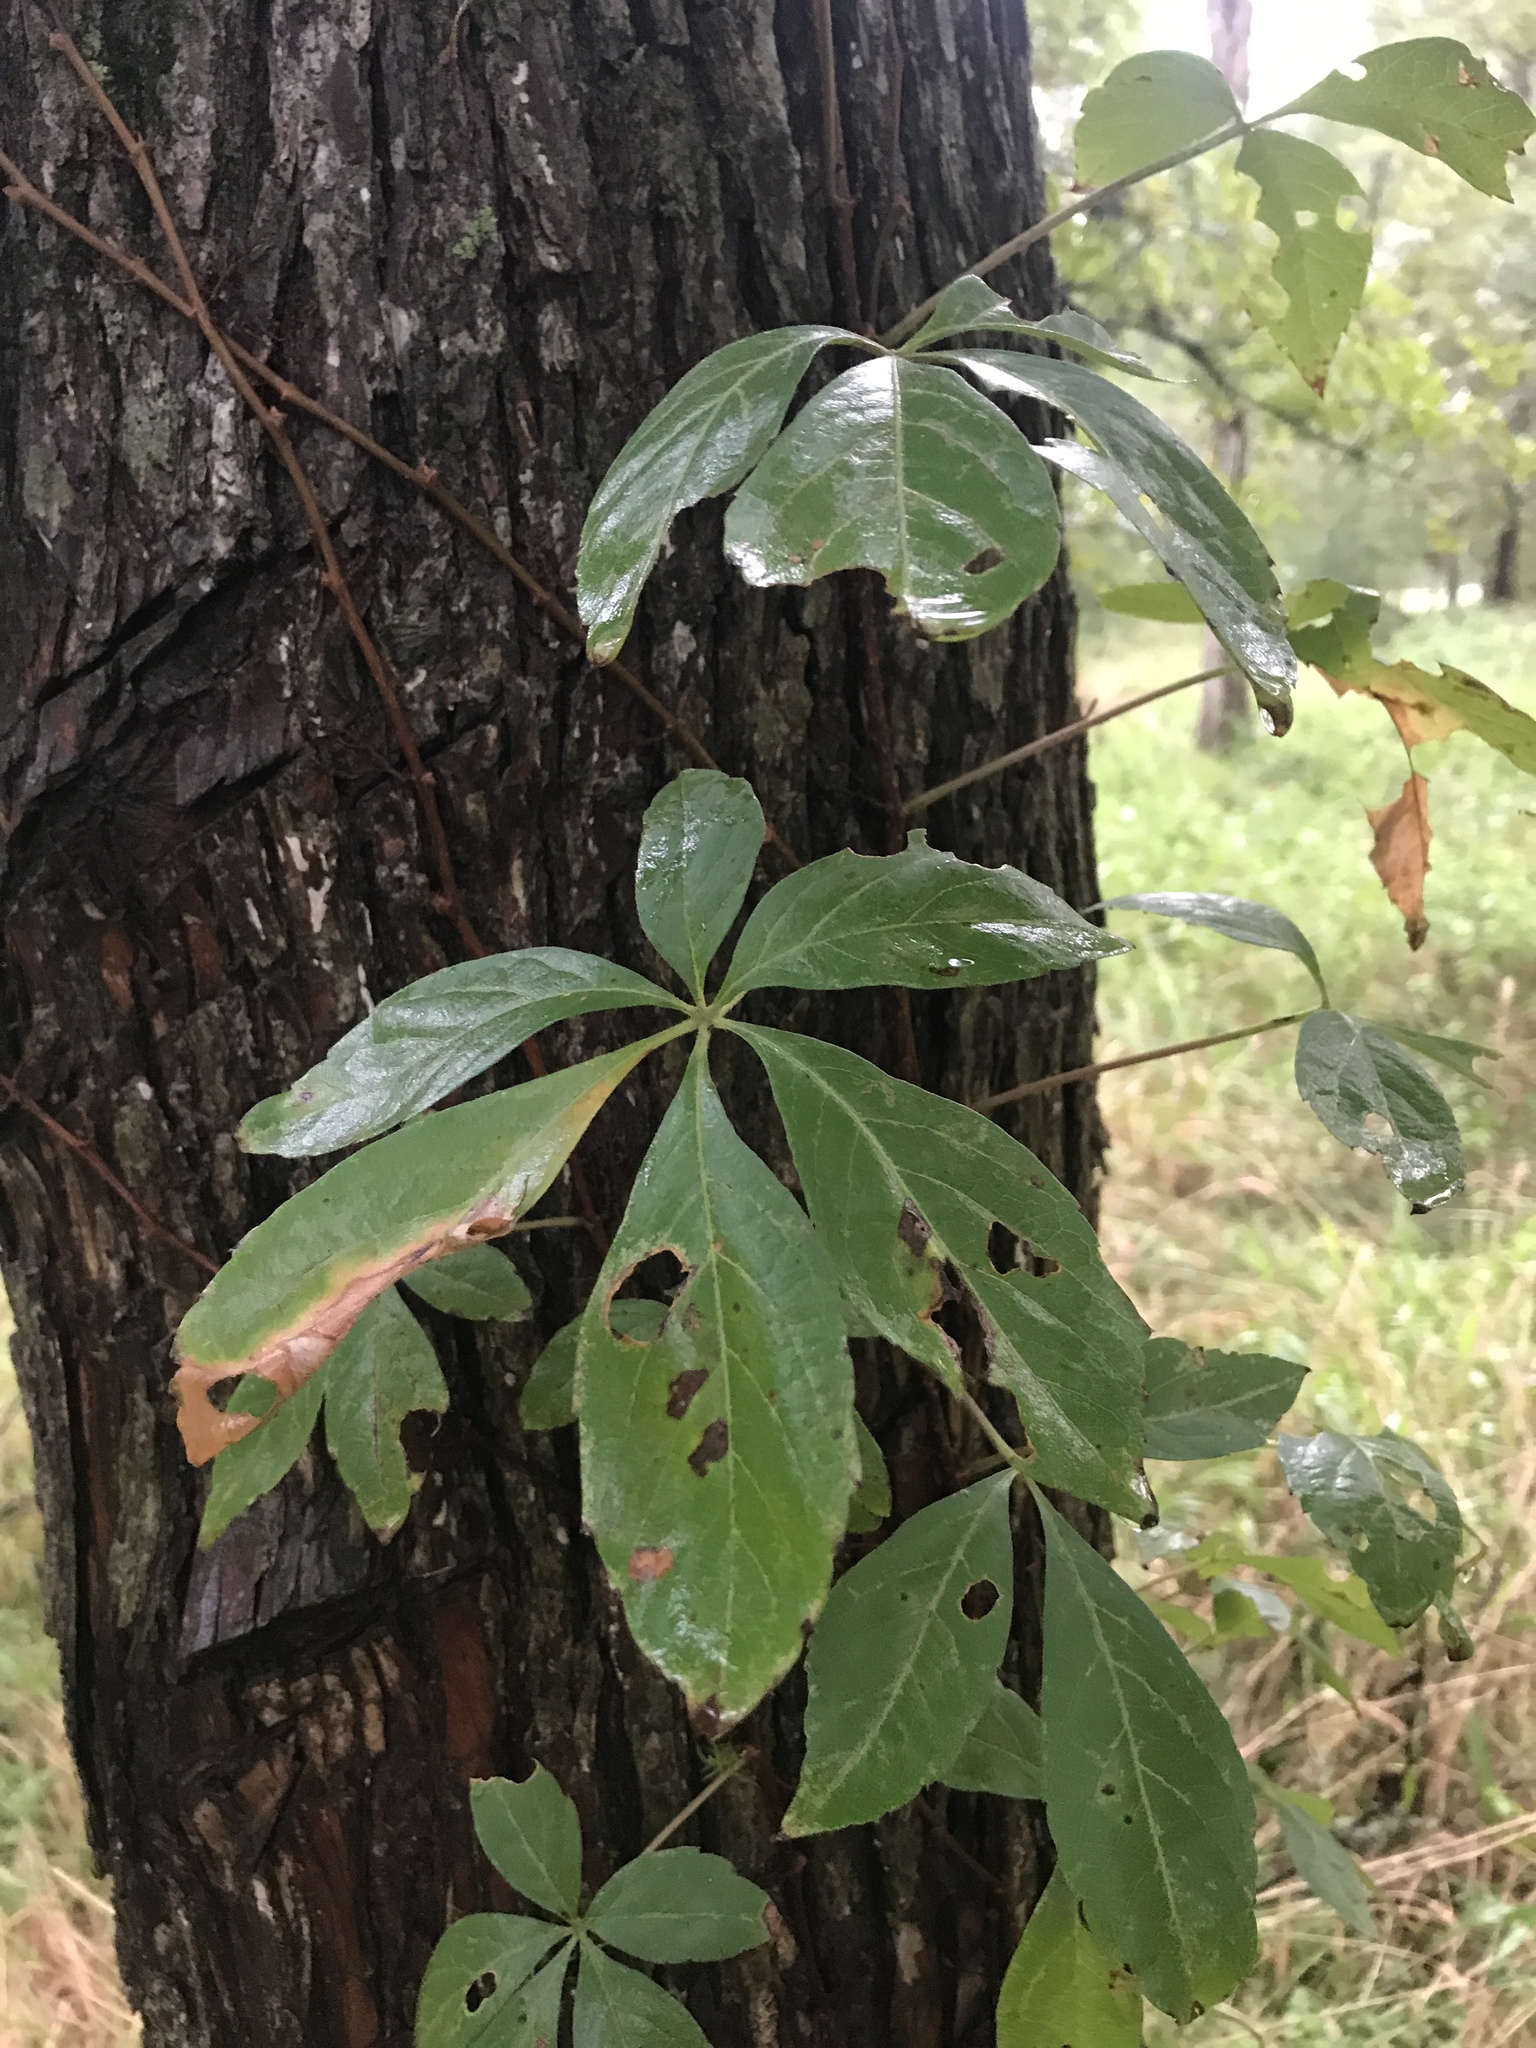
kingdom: Plantae
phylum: Tracheophyta
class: Magnoliopsida
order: Vitales
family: Vitaceae
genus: Parthenocissus
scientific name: Parthenocissus quinquefolia
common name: Virginia-creeper
